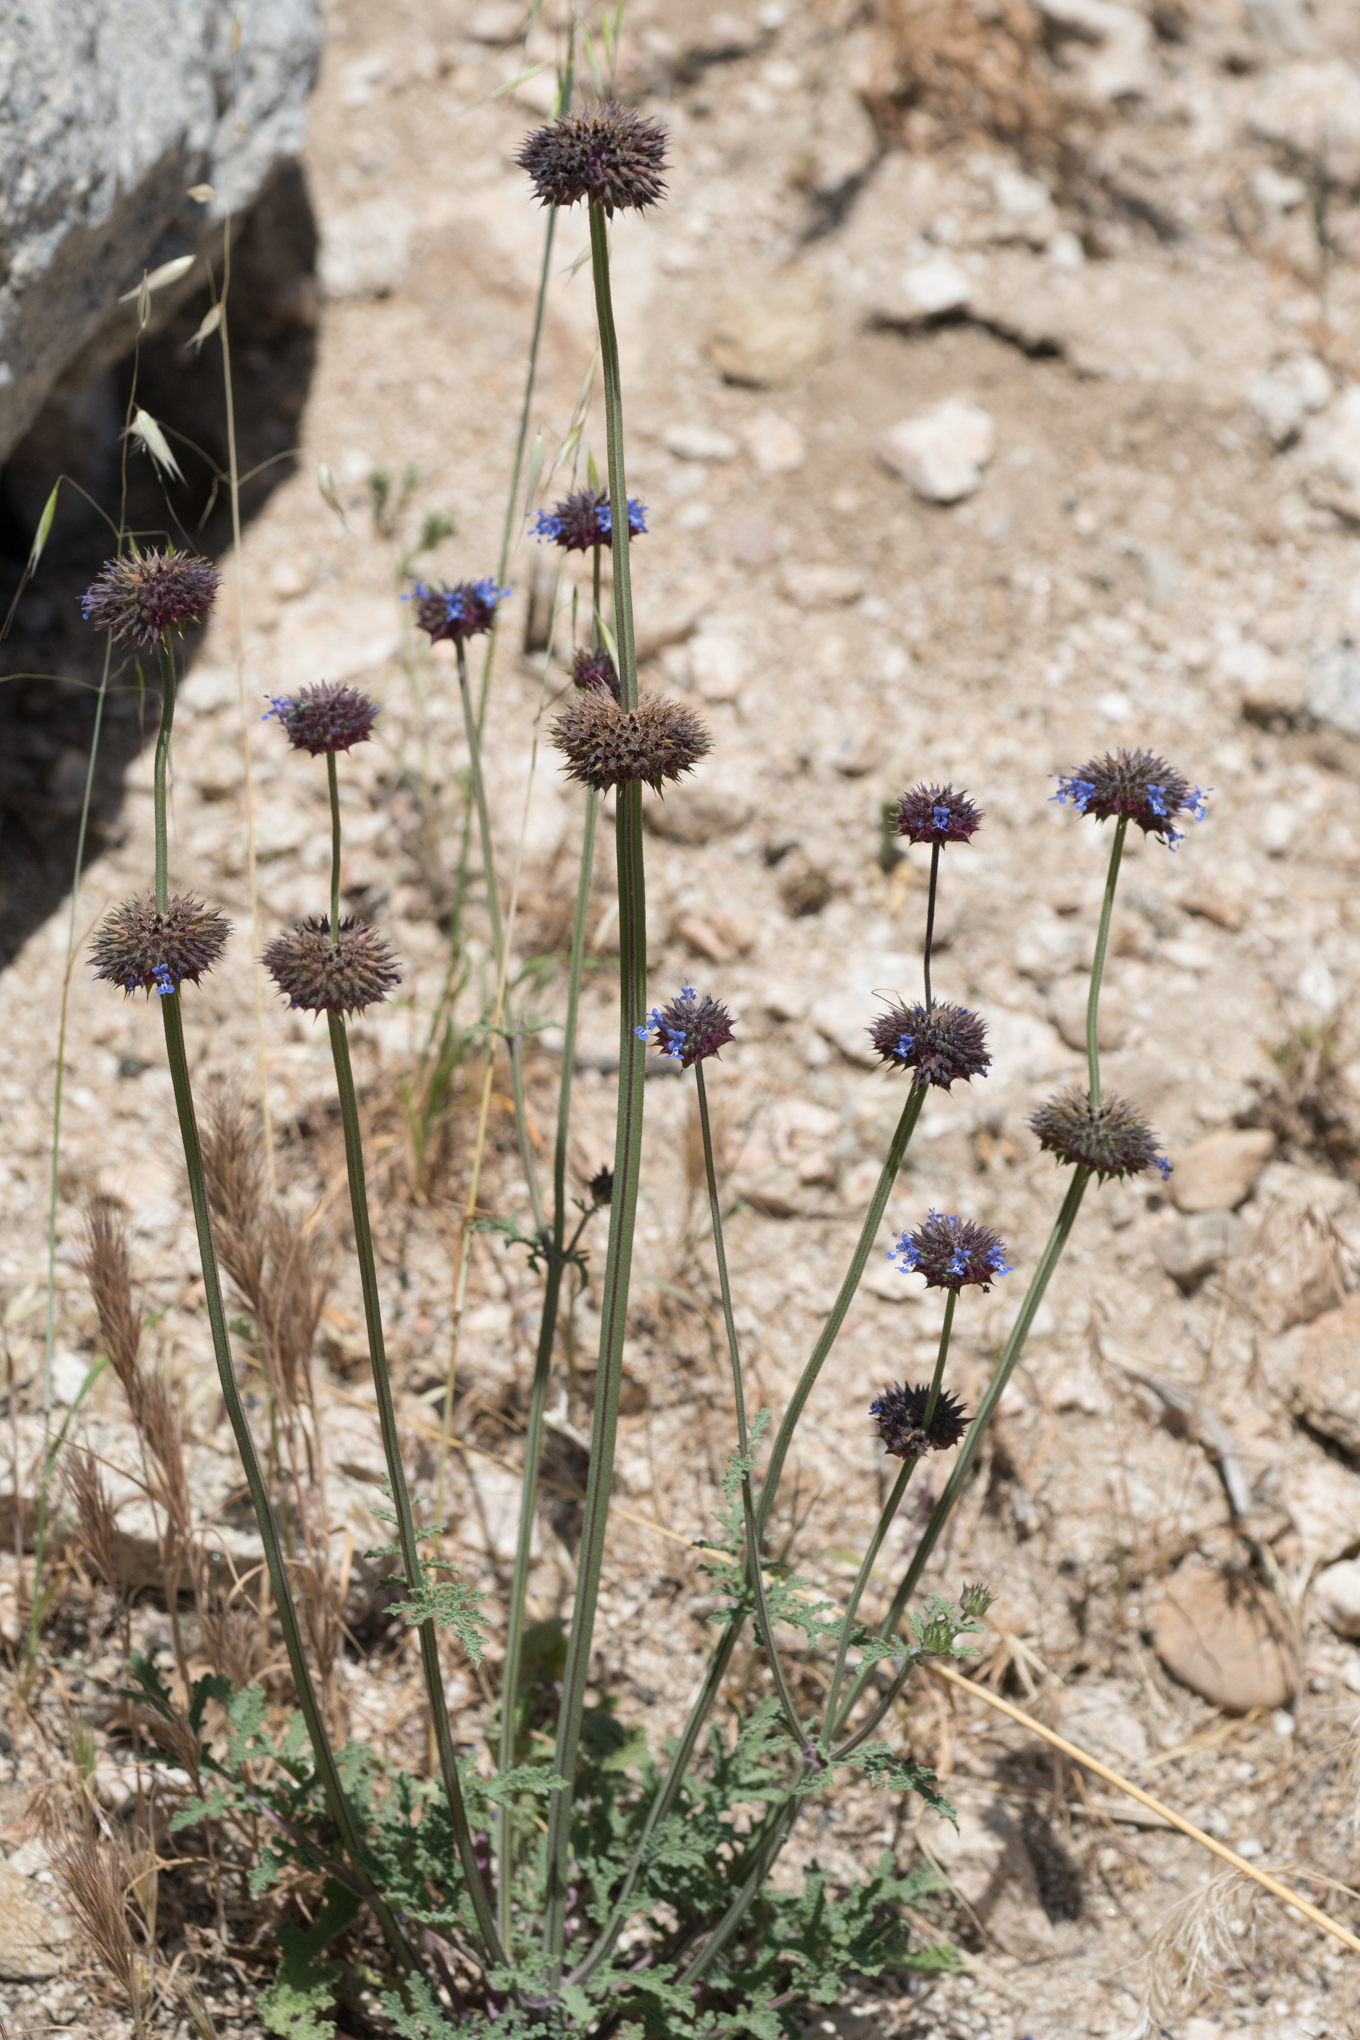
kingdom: Plantae
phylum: Tracheophyta
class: Magnoliopsida
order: Lamiales
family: Lamiaceae
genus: Salvia
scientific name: Salvia columbariae
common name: Chia
